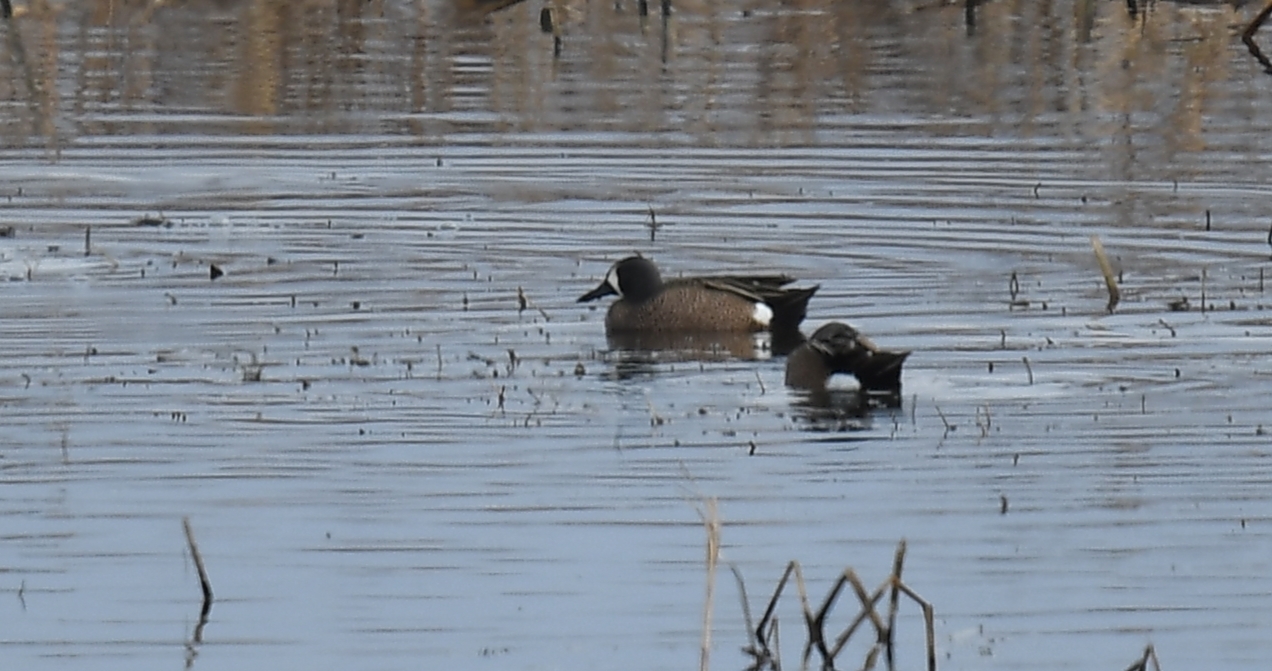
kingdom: Animalia
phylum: Chordata
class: Aves
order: Anseriformes
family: Anatidae
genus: Spatula
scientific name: Spatula discors
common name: Blue-winged teal
